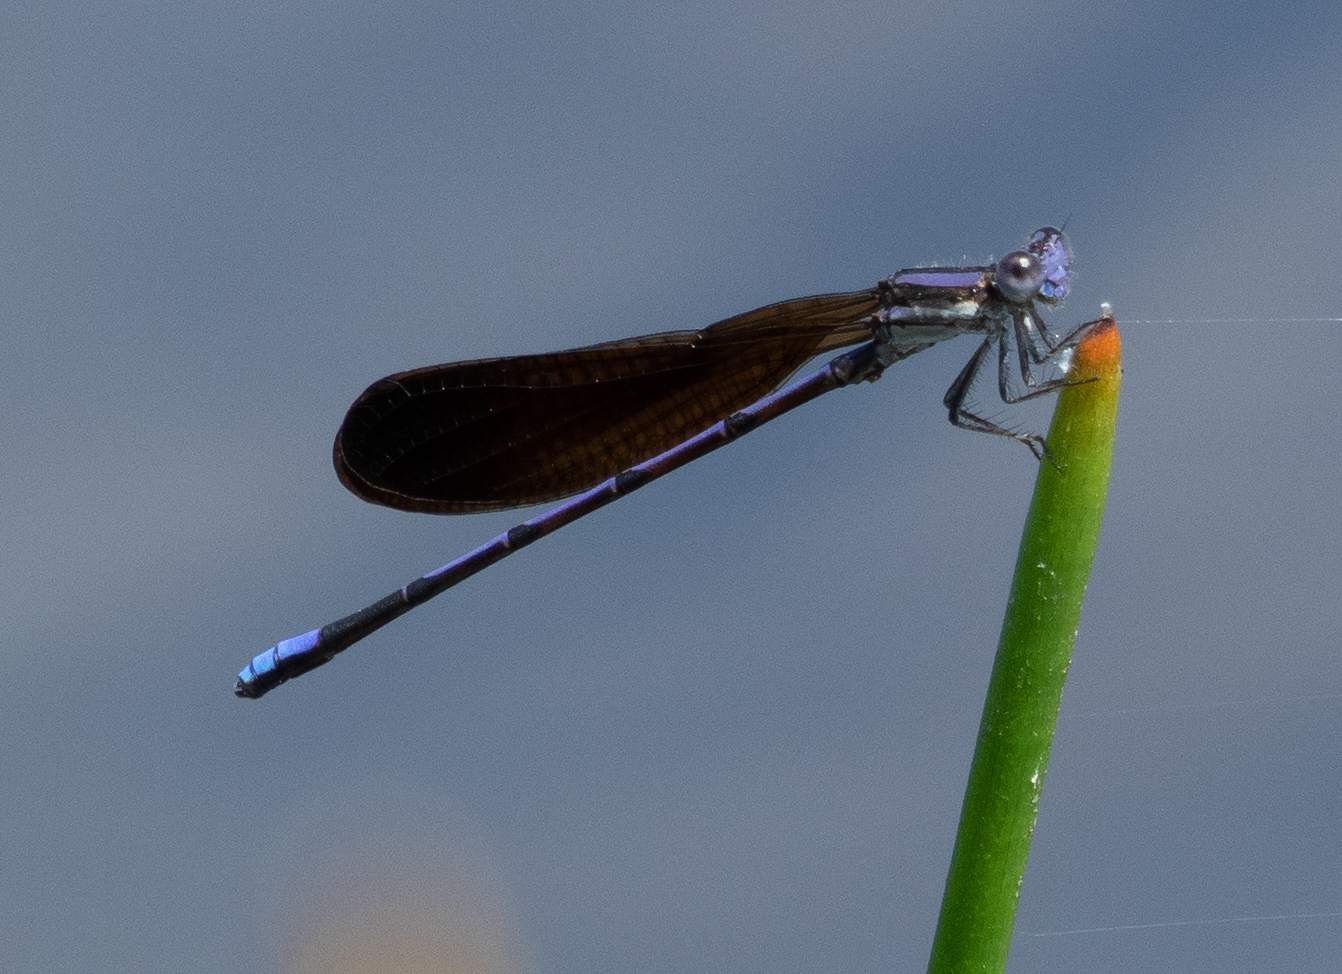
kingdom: Animalia
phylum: Arthropoda
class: Insecta
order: Odonata
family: Coenagrionidae
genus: Argia
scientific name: Argia fumipennis
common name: Variable dancer
